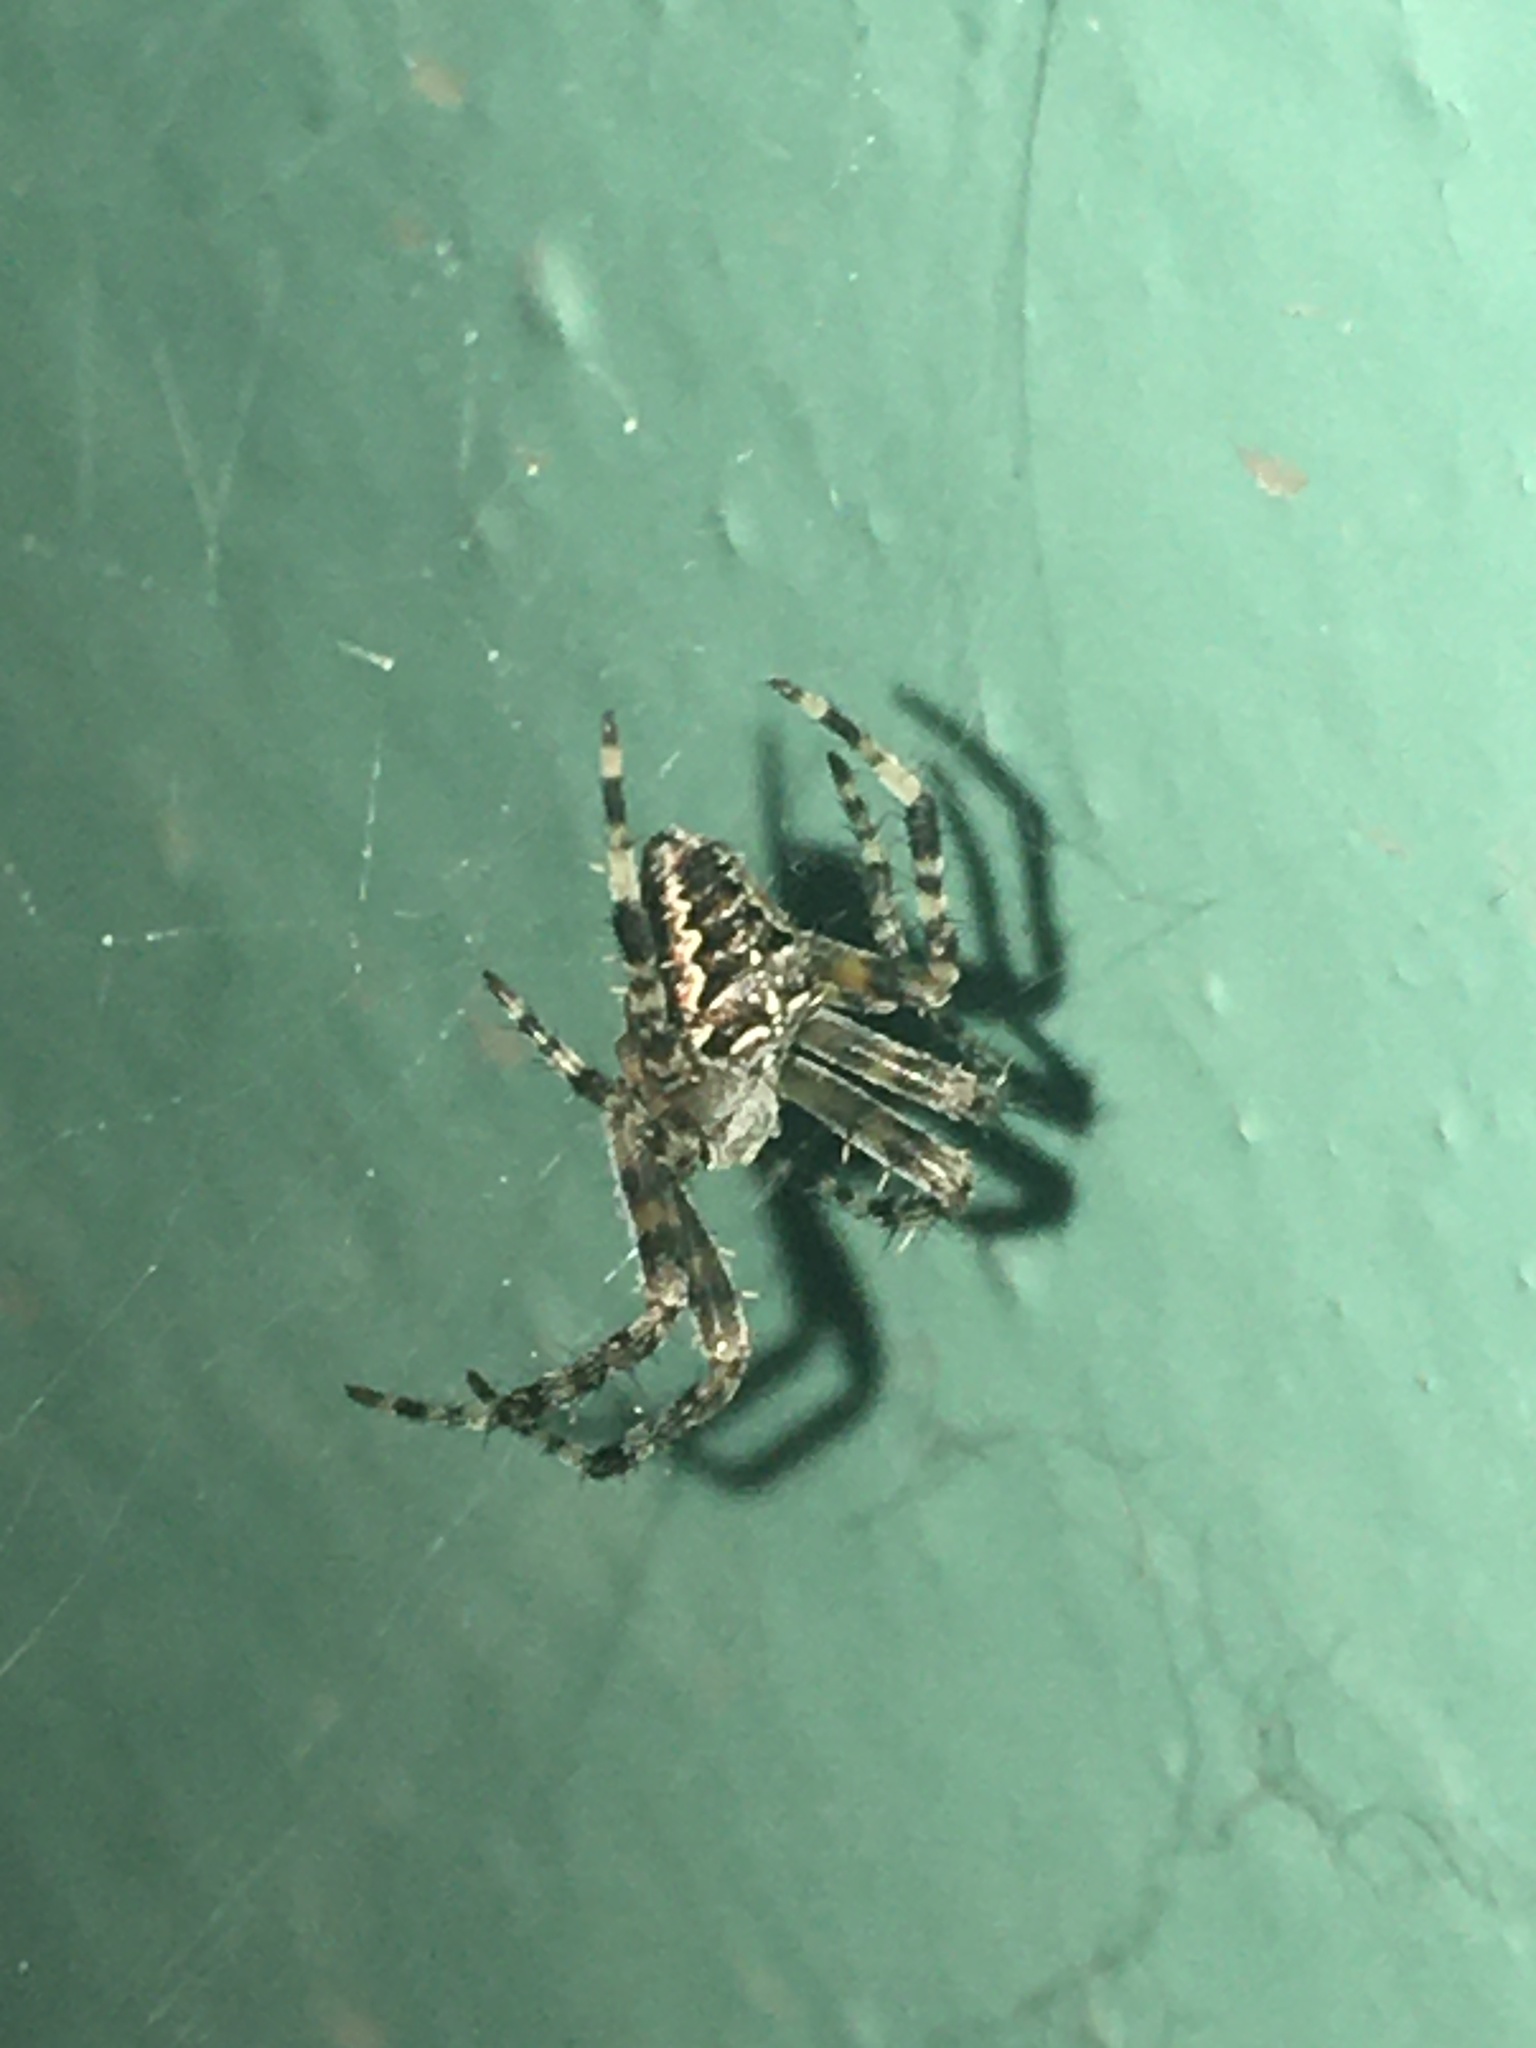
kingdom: Animalia
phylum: Arthropoda
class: Arachnida
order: Araneae
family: Araneidae
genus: Araneus
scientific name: Araneus diadematus
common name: Cross orbweaver
